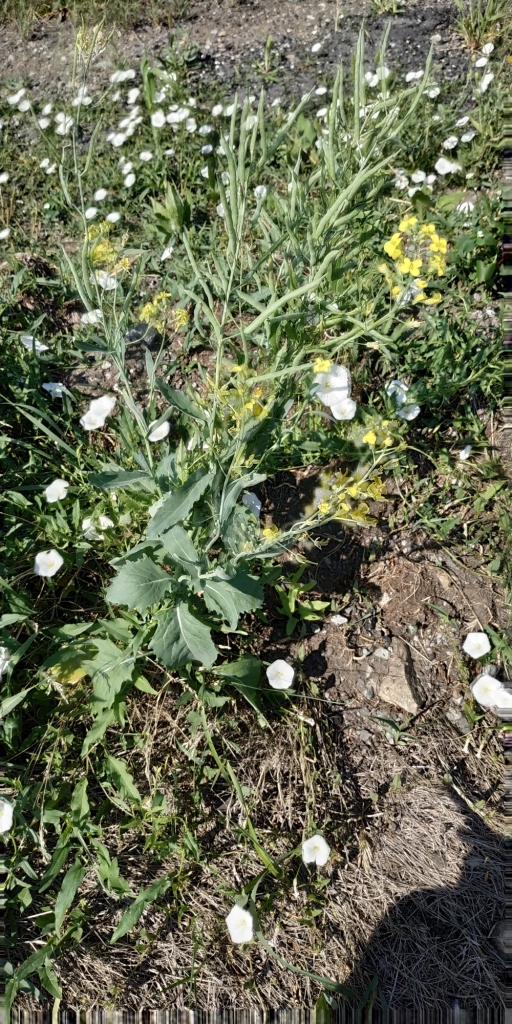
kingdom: Plantae
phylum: Tracheophyta
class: Magnoliopsida
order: Brassicales
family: Brassicaceae
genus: Brassica
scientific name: Brassica napus
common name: Rape
